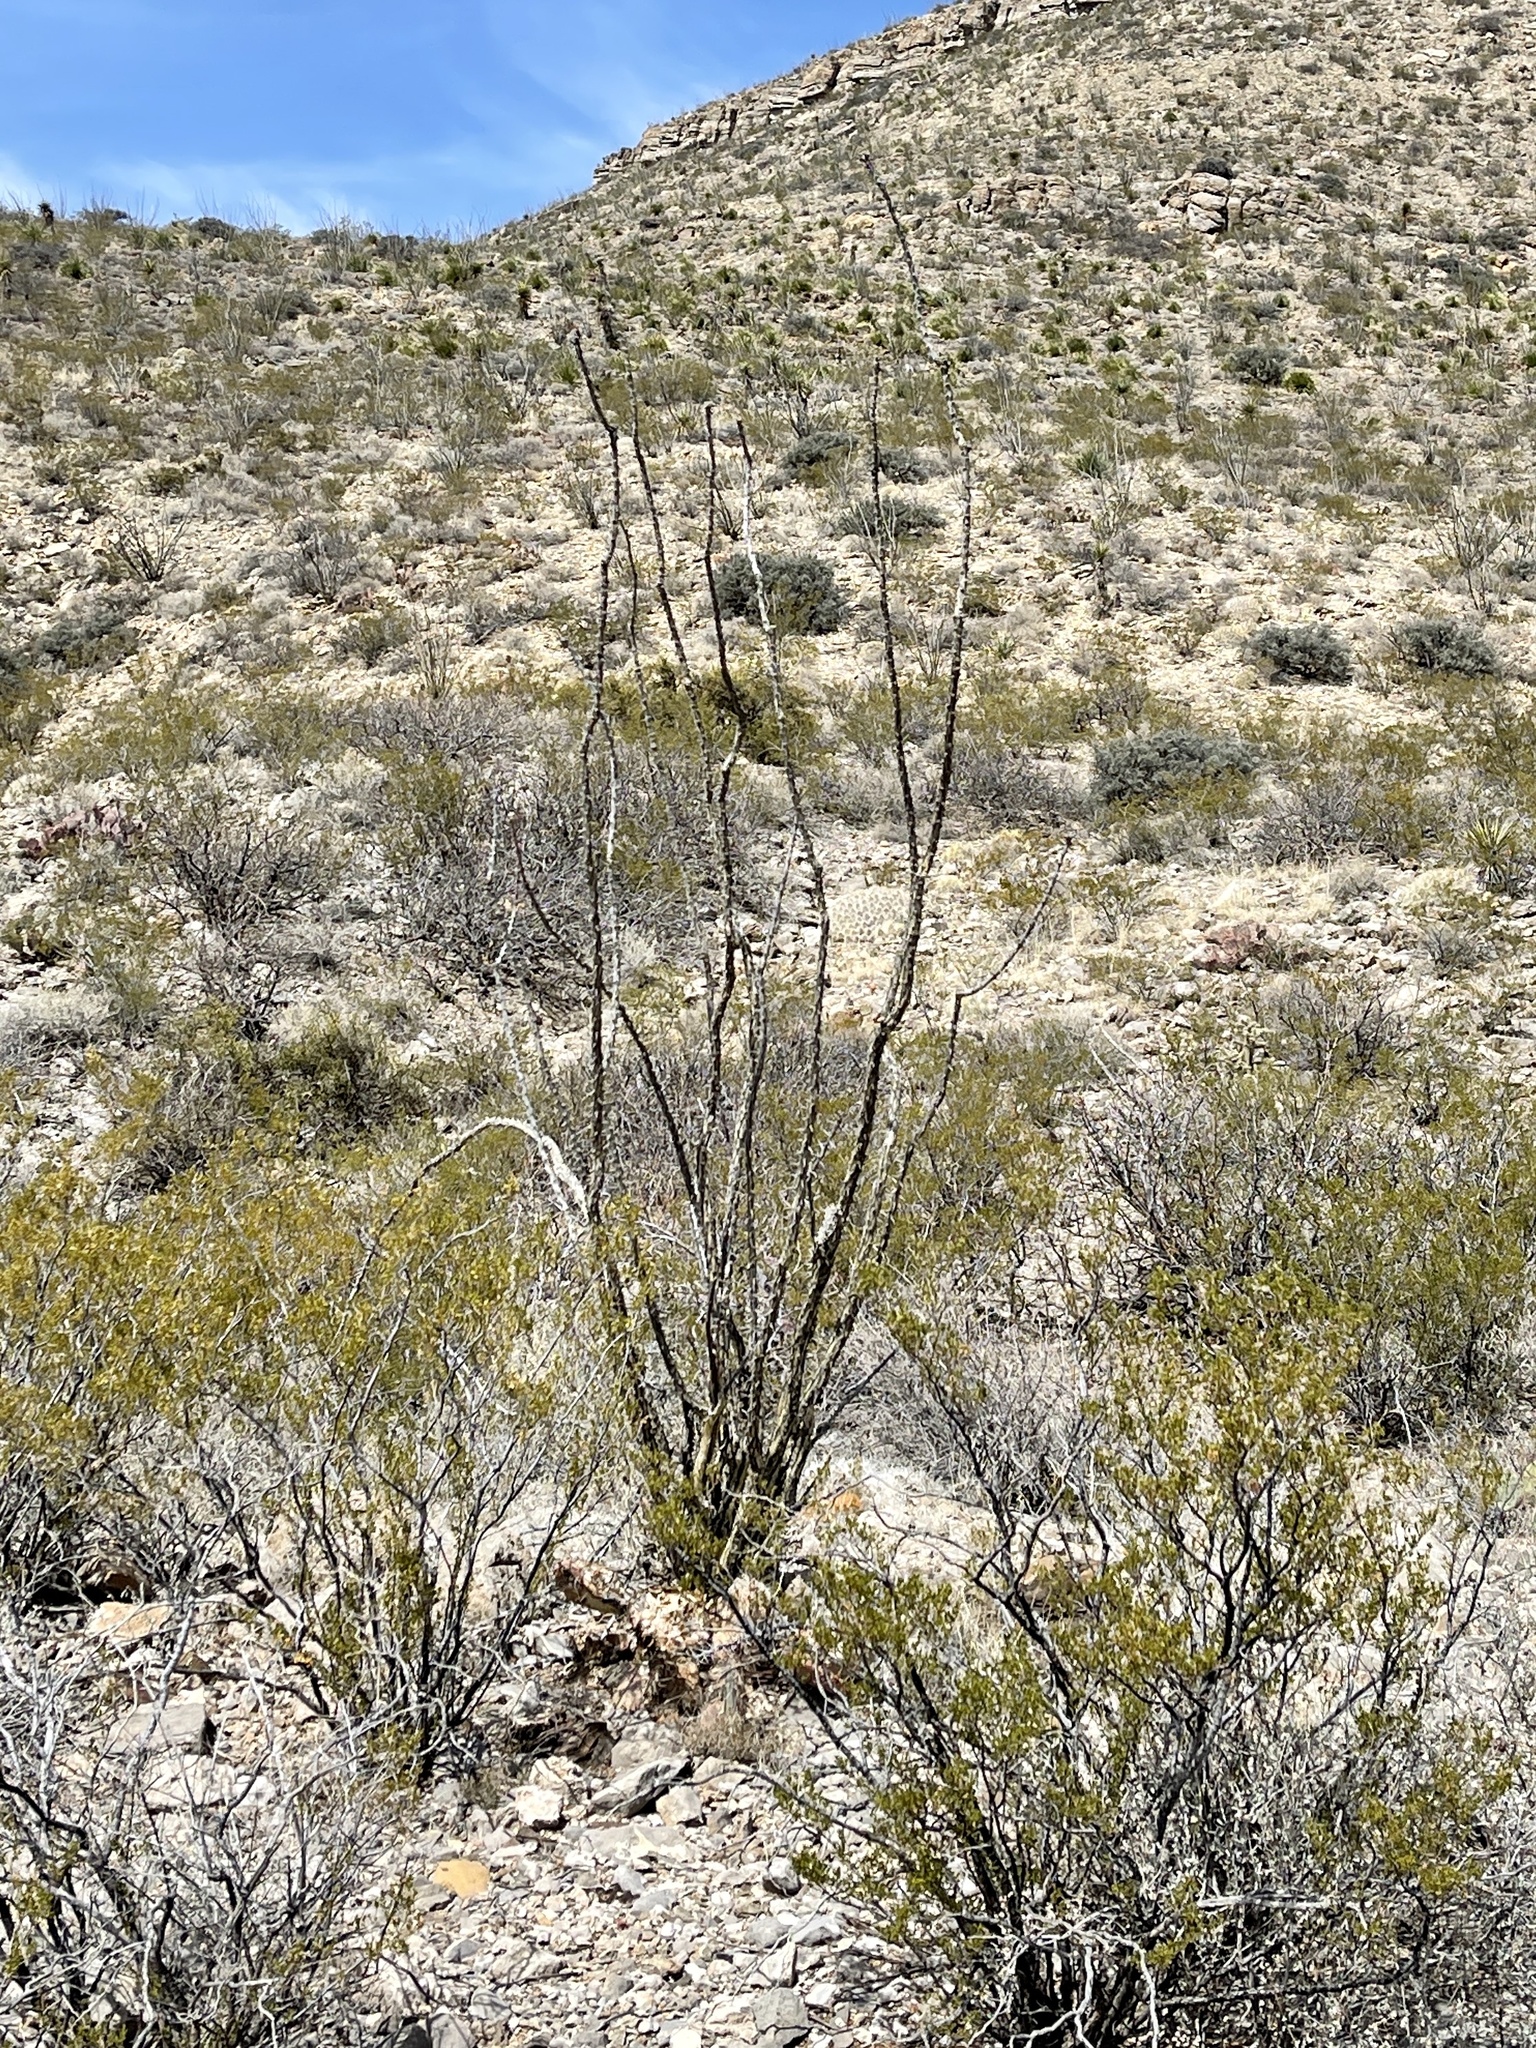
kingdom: Plantae
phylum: Tracheophyta
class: Magnoliopsida
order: Ericales
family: Fouquieriaceae
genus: Fouquieria
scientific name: Fouquieria splendens
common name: Vine-cactus
